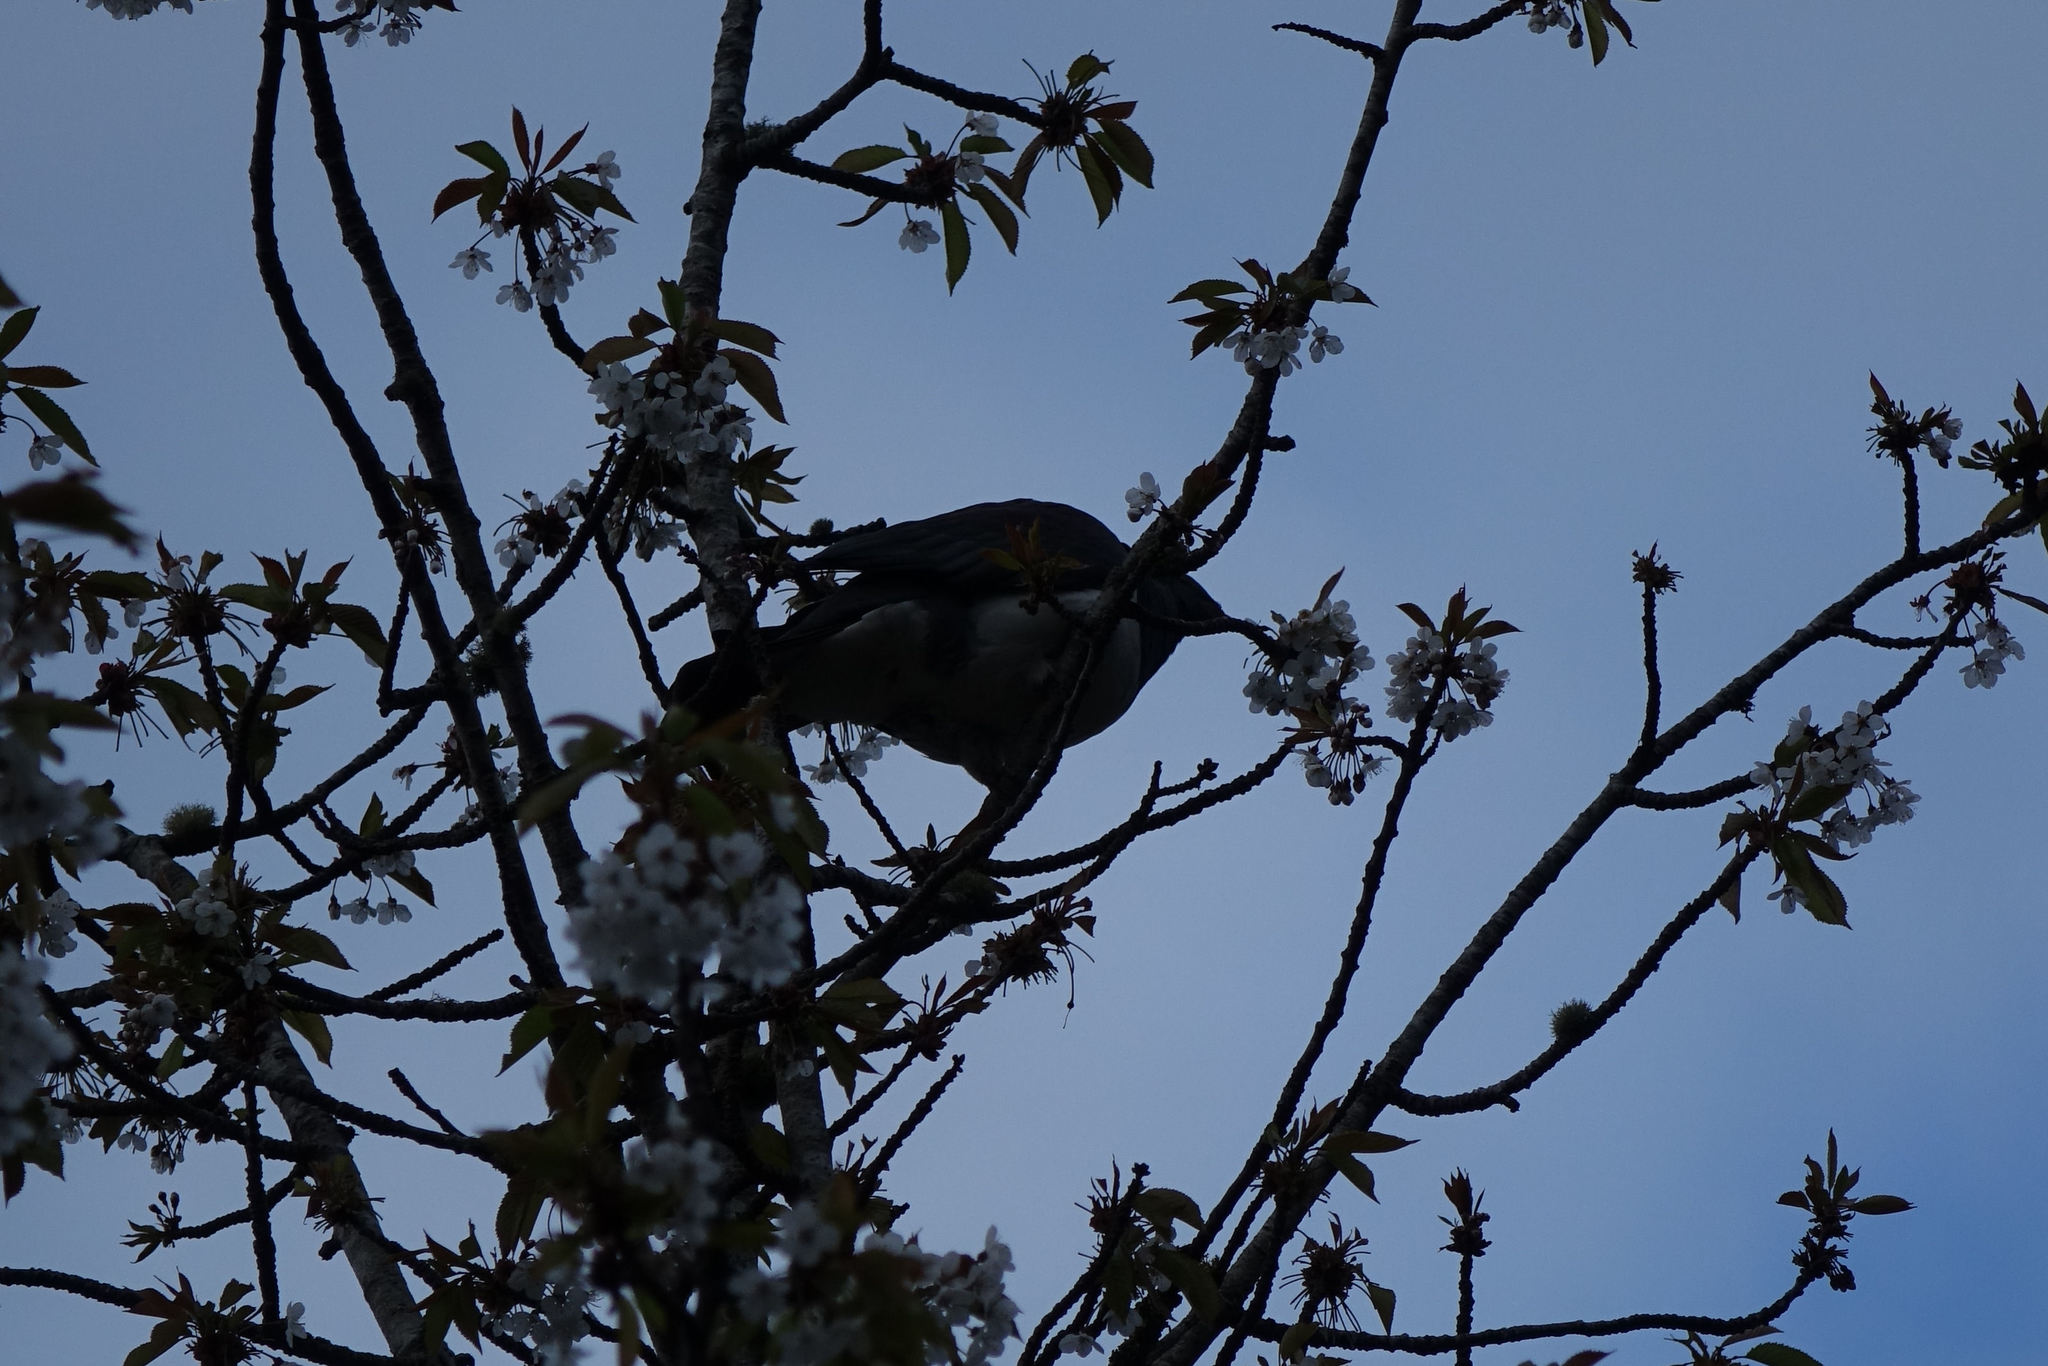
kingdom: Animalia
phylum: Chordata
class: Aves
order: Columbiformes
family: Columbidae
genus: Hemiphaga
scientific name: Hemiphaga novaeseelandiae
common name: New zealand pigeon
